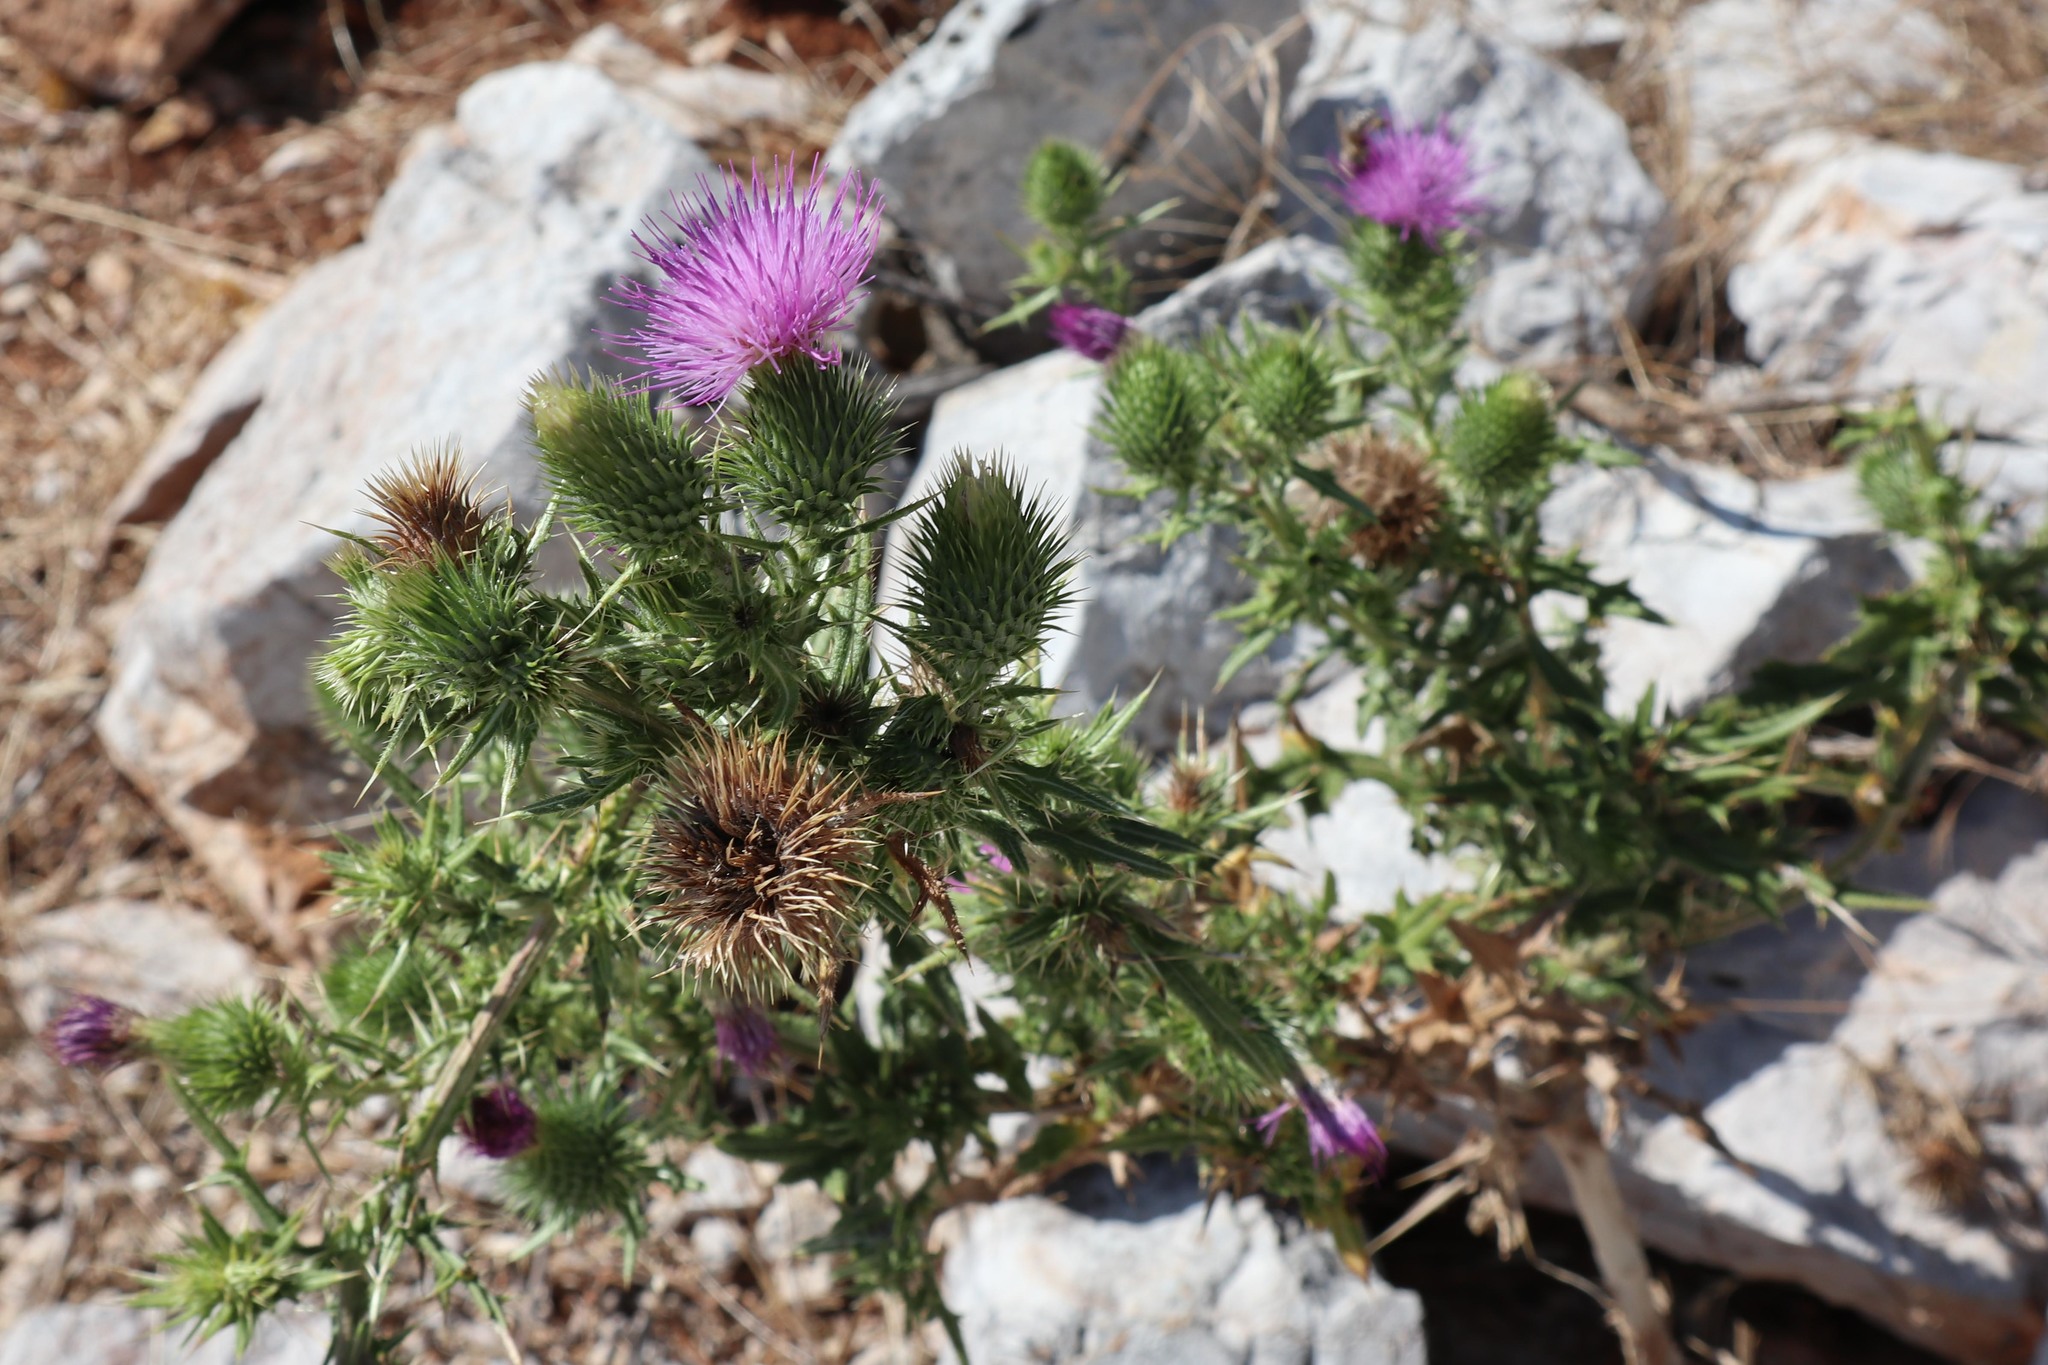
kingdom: Plantae
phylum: Tracheophyta
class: Magnoliopsida
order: Asterales
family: Asteraceae
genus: Cirsium
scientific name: Cirsium vulgare
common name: Bull thistle
